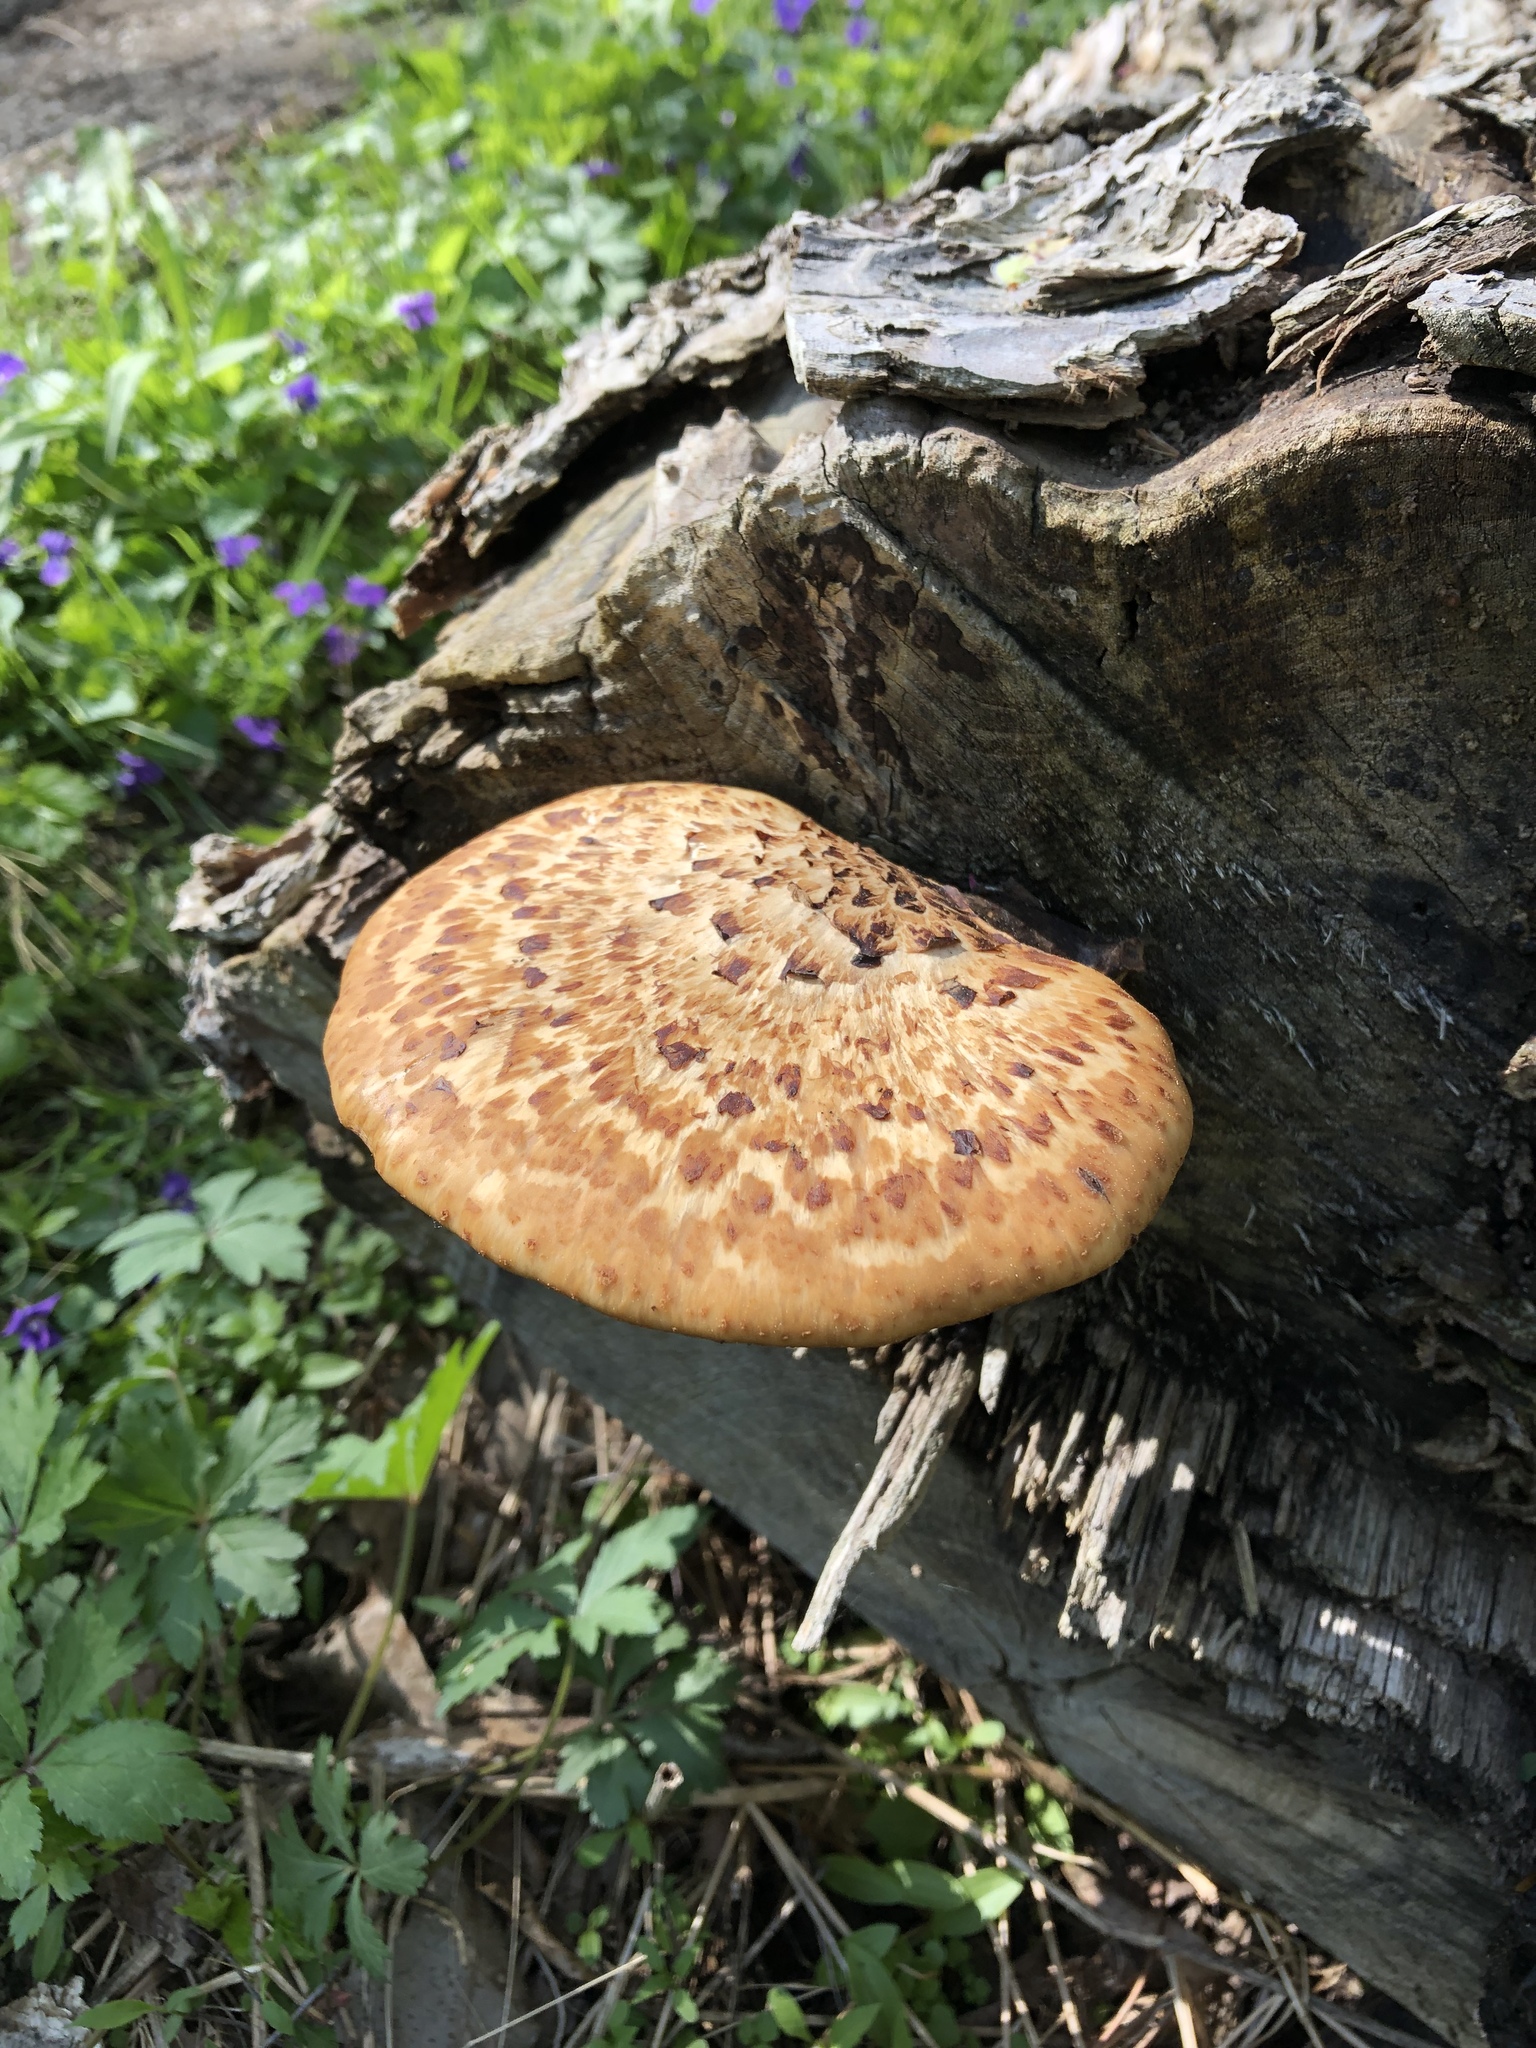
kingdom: Fungi
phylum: Basidiomycota
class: Agaricomycetes
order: Polyporales
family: Polyporaceae
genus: Cerioporus
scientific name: Cerioporus squamosus
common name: Dryad's saddle
